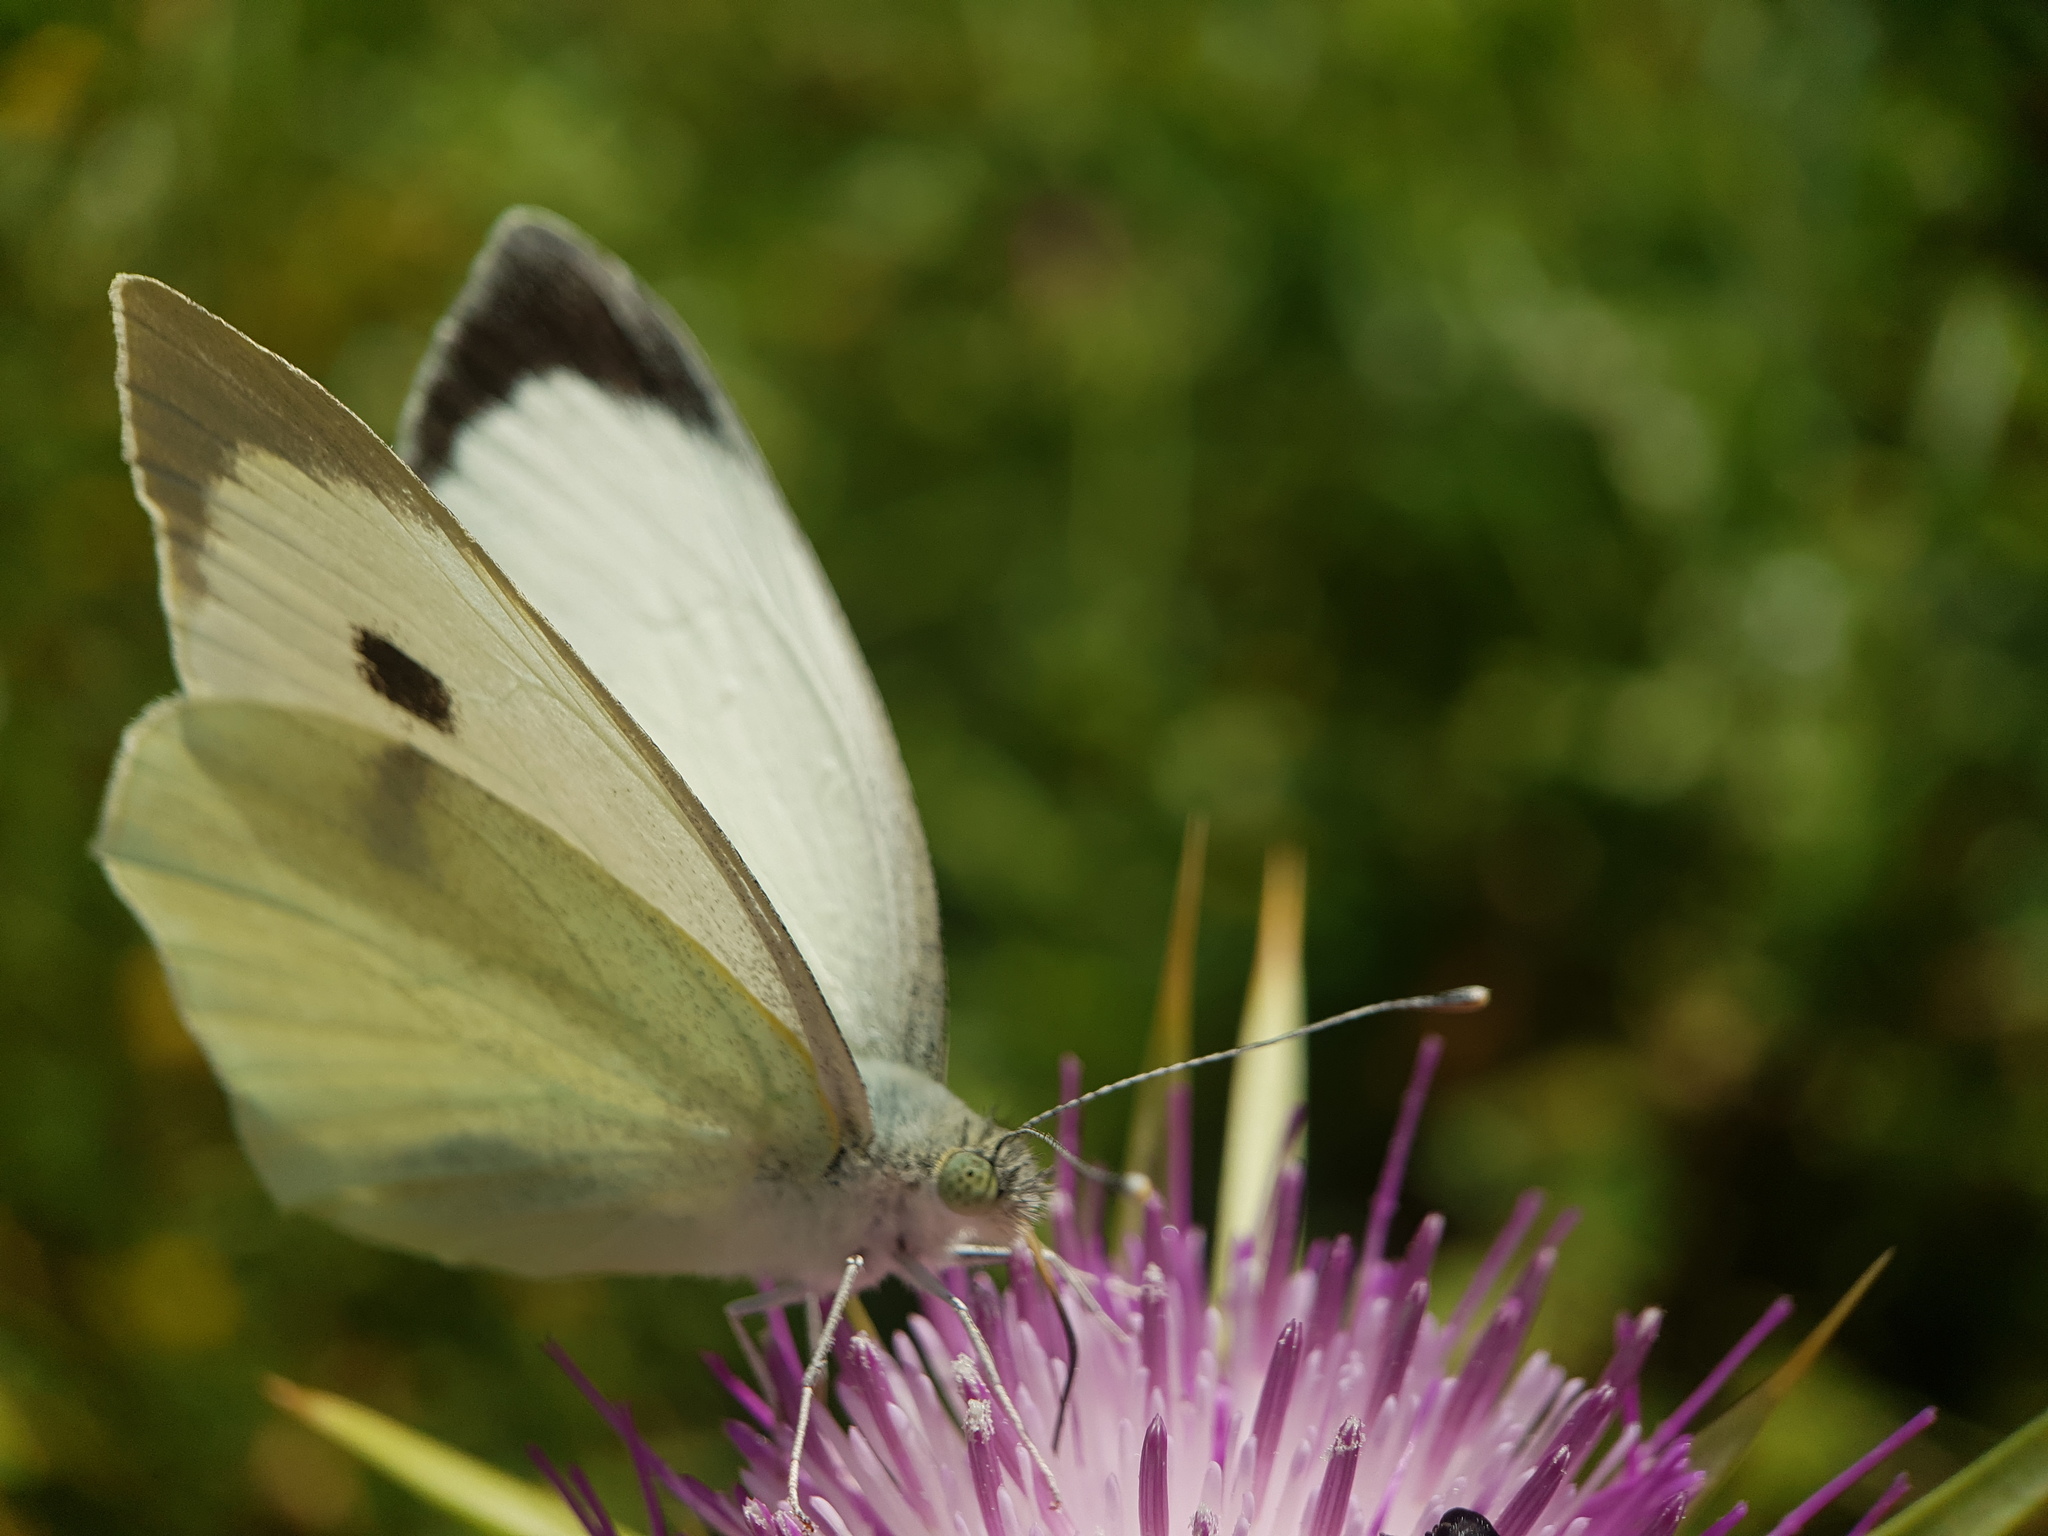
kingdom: Animalia
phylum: Arthropoda
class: Insecta
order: Lepidoptera
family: Pieridae
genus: Pieris
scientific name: Pieris brassicae
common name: Large white
